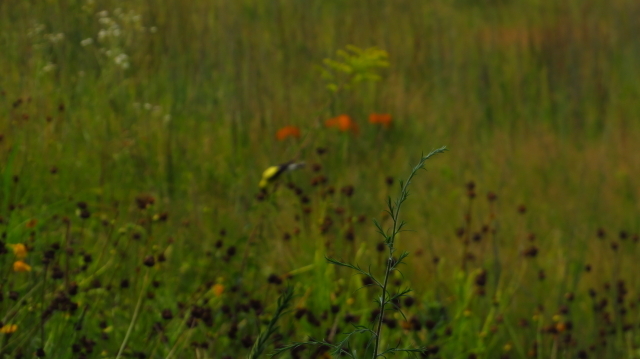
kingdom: Animalia
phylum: Chordata
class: Aves
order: Passeriformes
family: Fringillidae
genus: Spinus
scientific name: Spinus tristis
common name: American goldfinch
